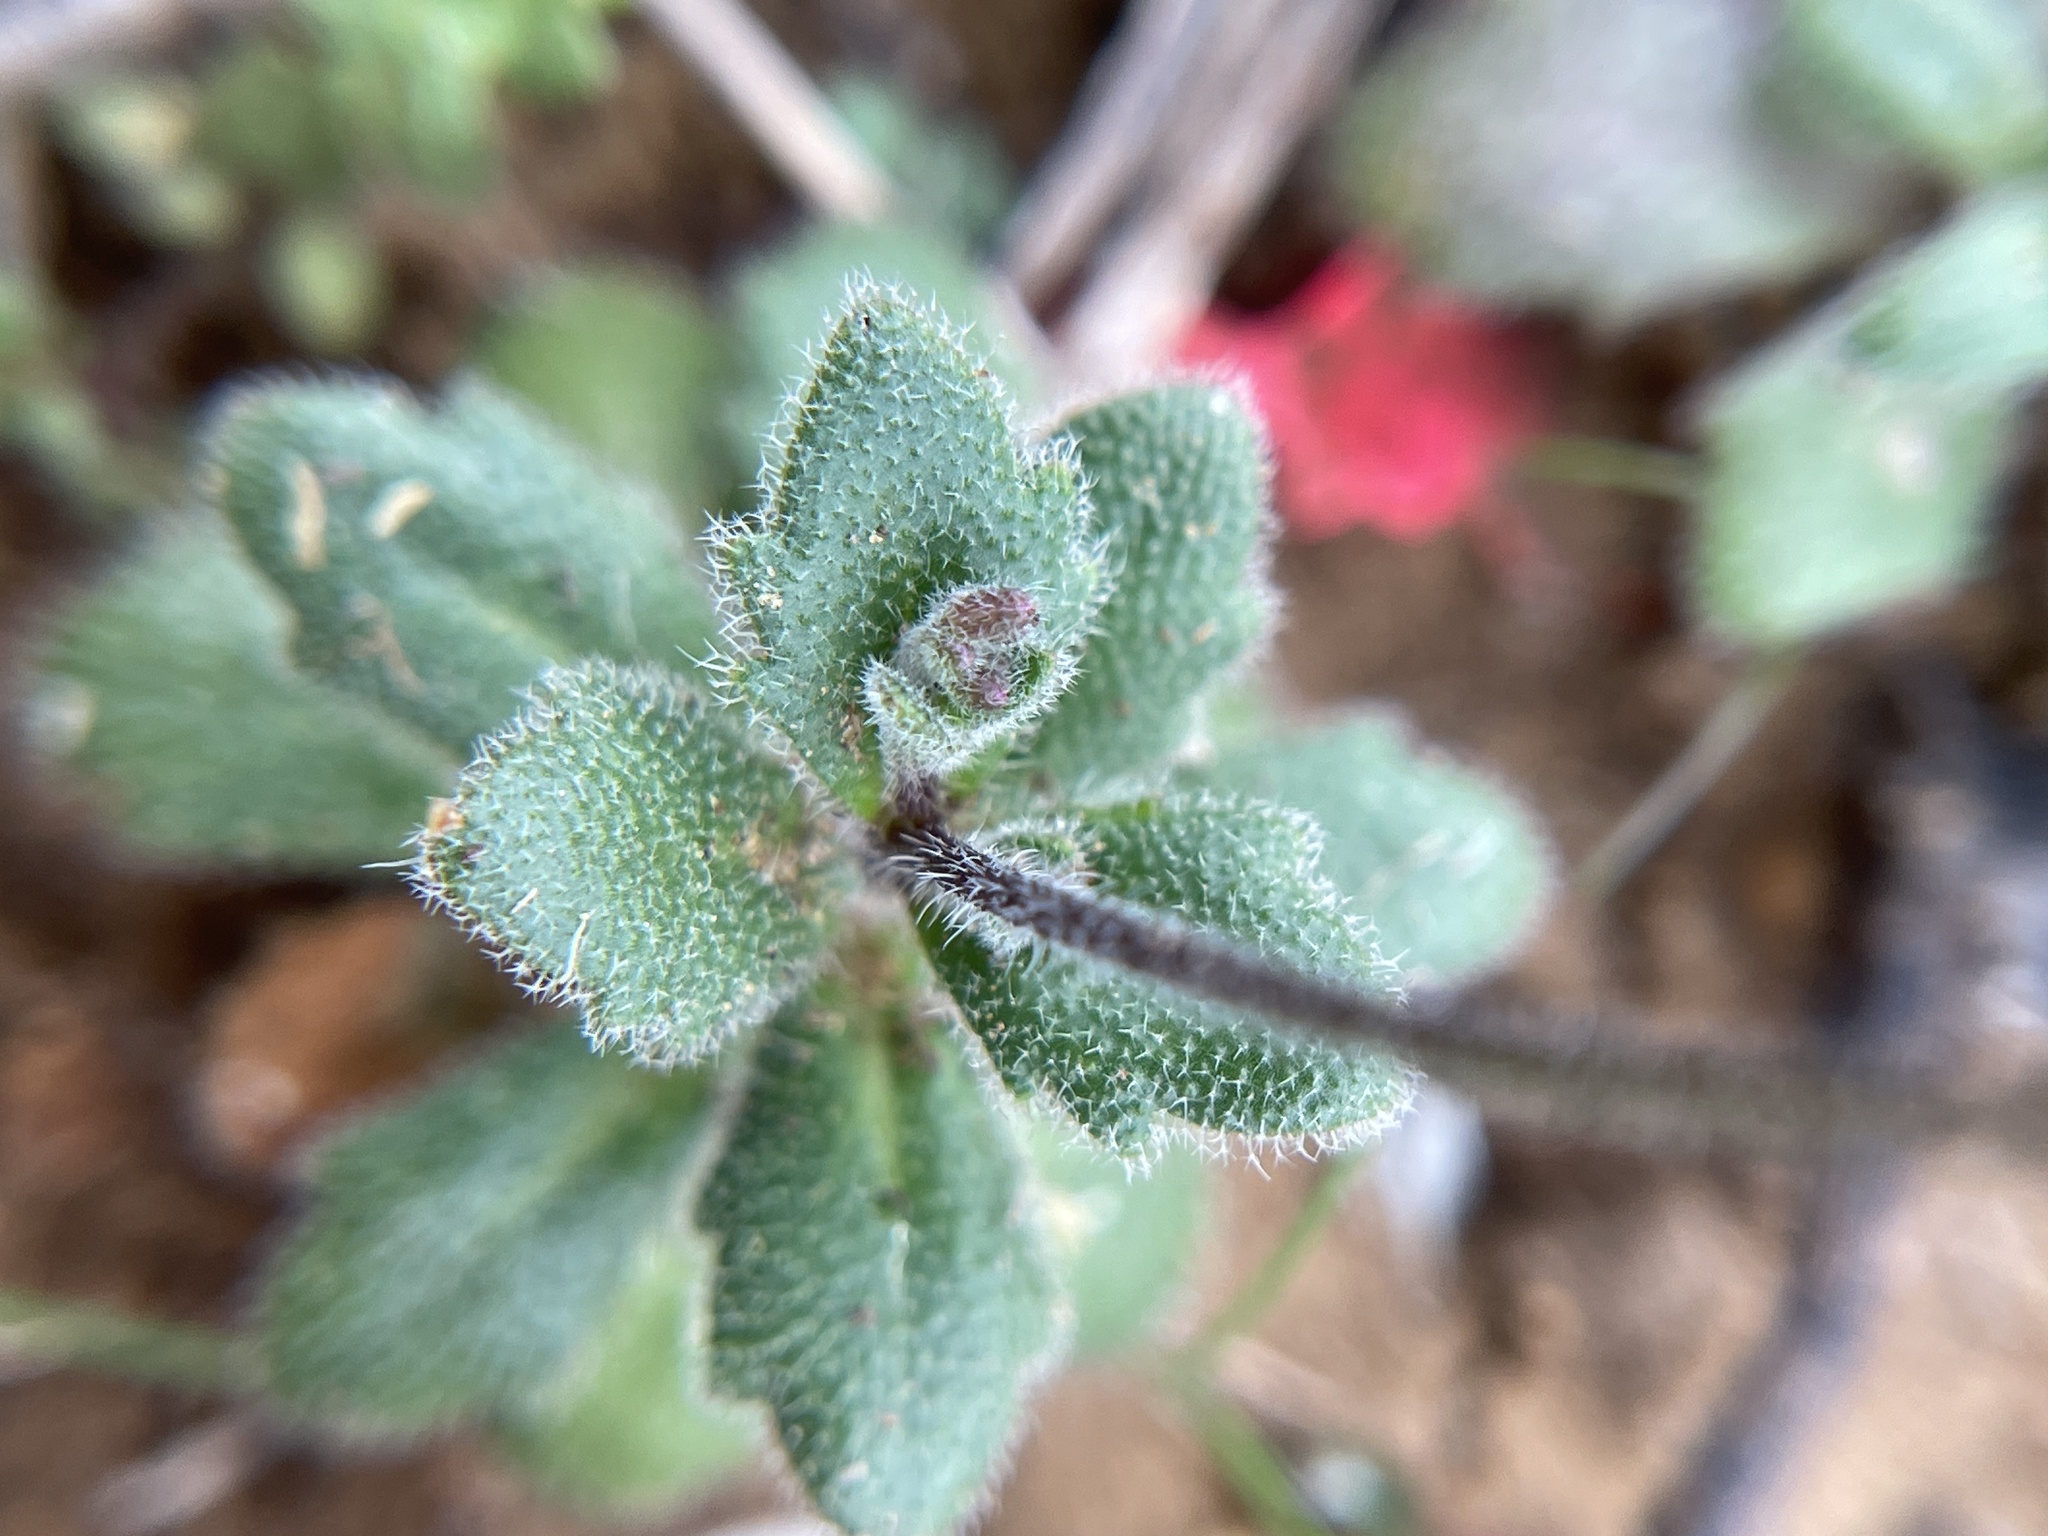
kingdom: Plantae
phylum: Tracheophyta
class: Magnoliopsida
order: Brassicales
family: Brassicaceae
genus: Tomostima
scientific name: Tomostima cuneifolia
